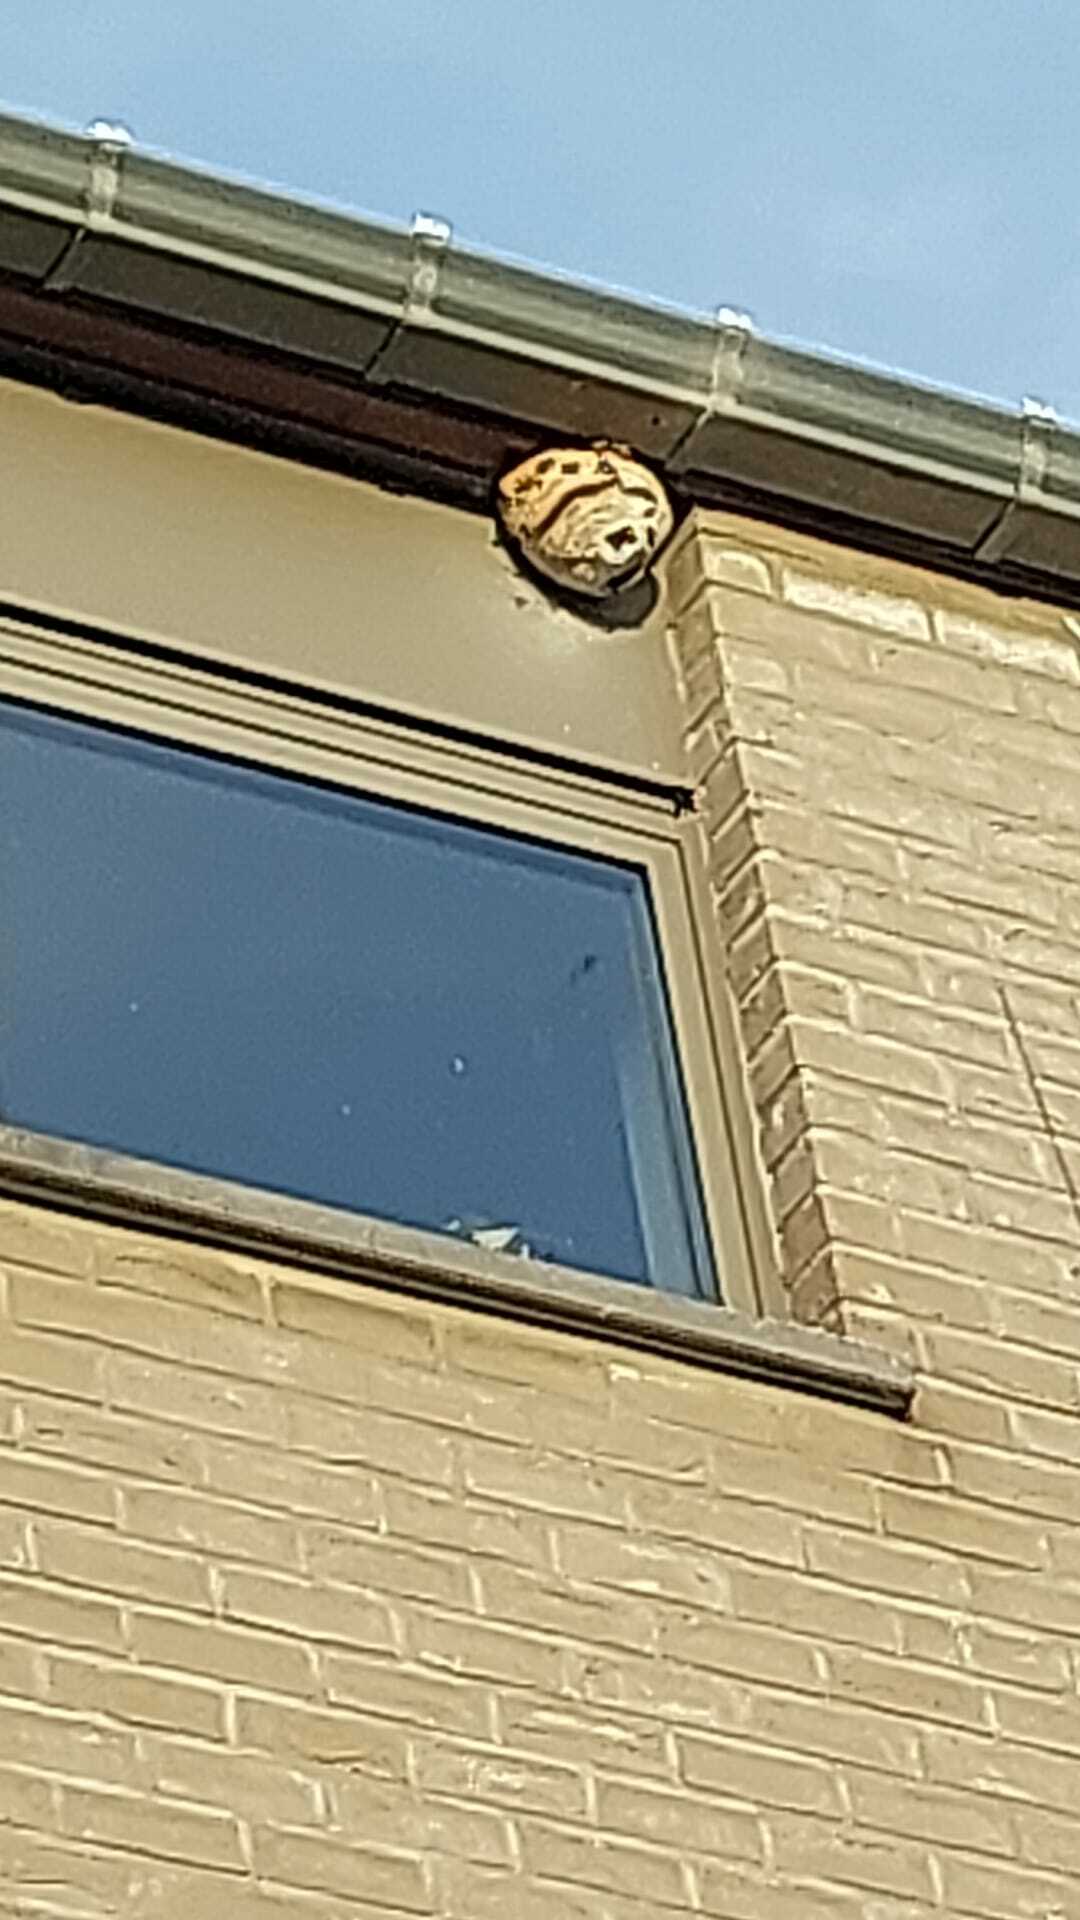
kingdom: Animalia
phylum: Arthropoda
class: Insecta
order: Hymenoptera
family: Vespidae
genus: Vespa
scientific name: Vespa velutina
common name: Asian hornet
